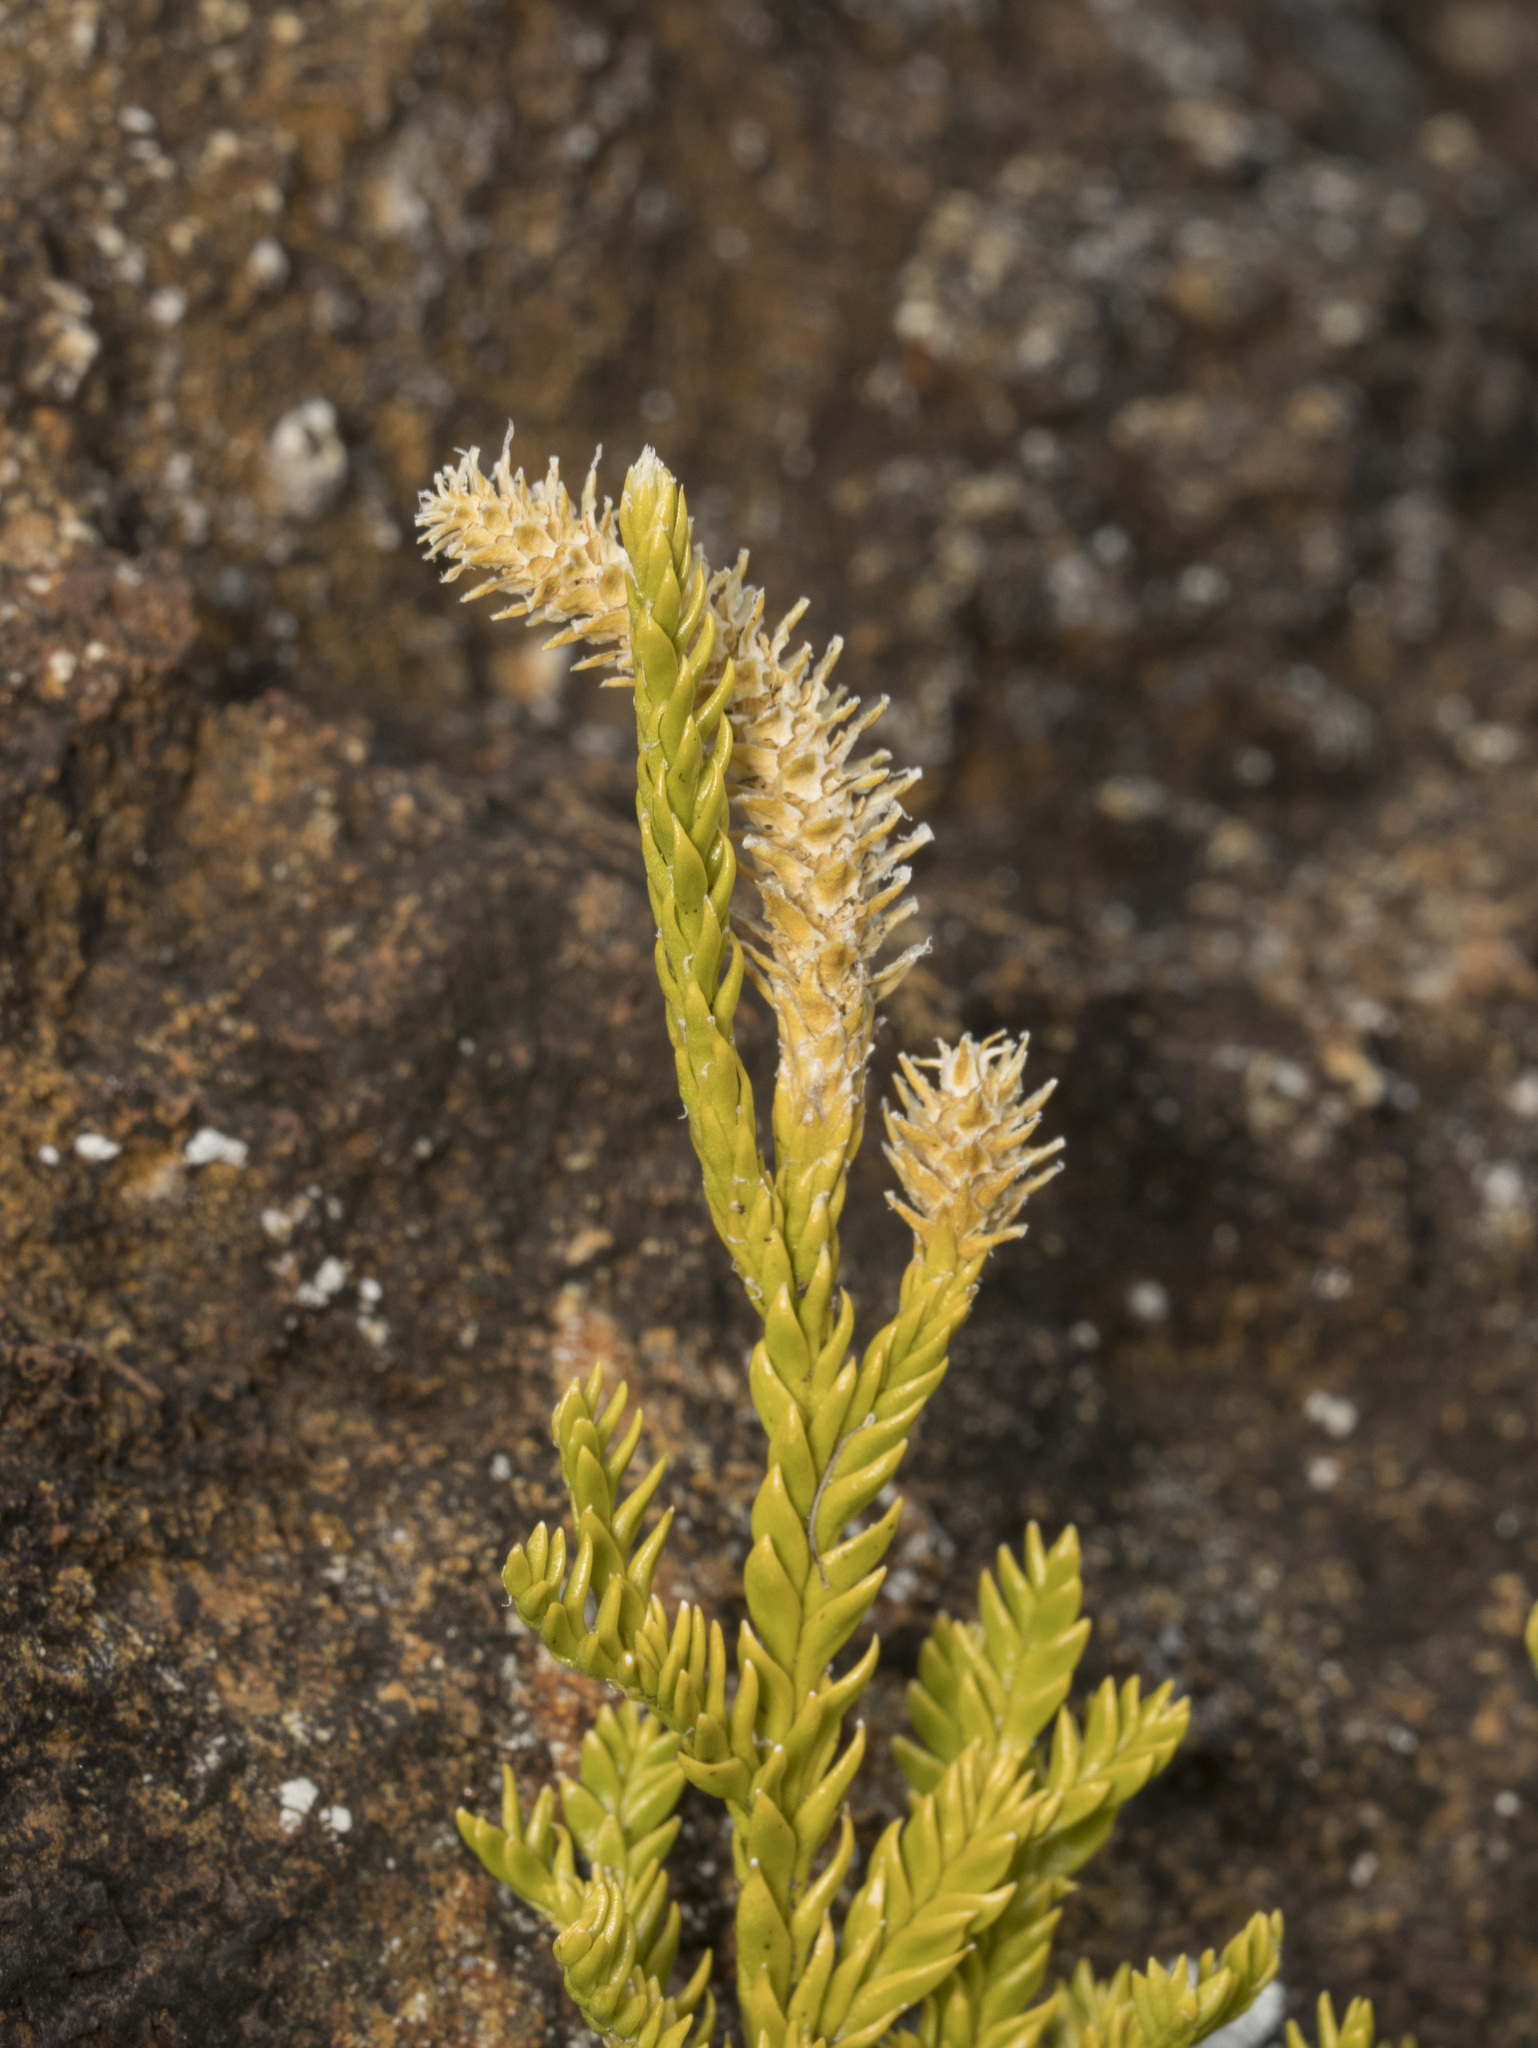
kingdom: Plantae
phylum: Tracheophyta
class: Lycopodiopsida
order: Lycopodiales
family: Lycopodiaceae
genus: Diphasium
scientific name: Diphasium gayanum
